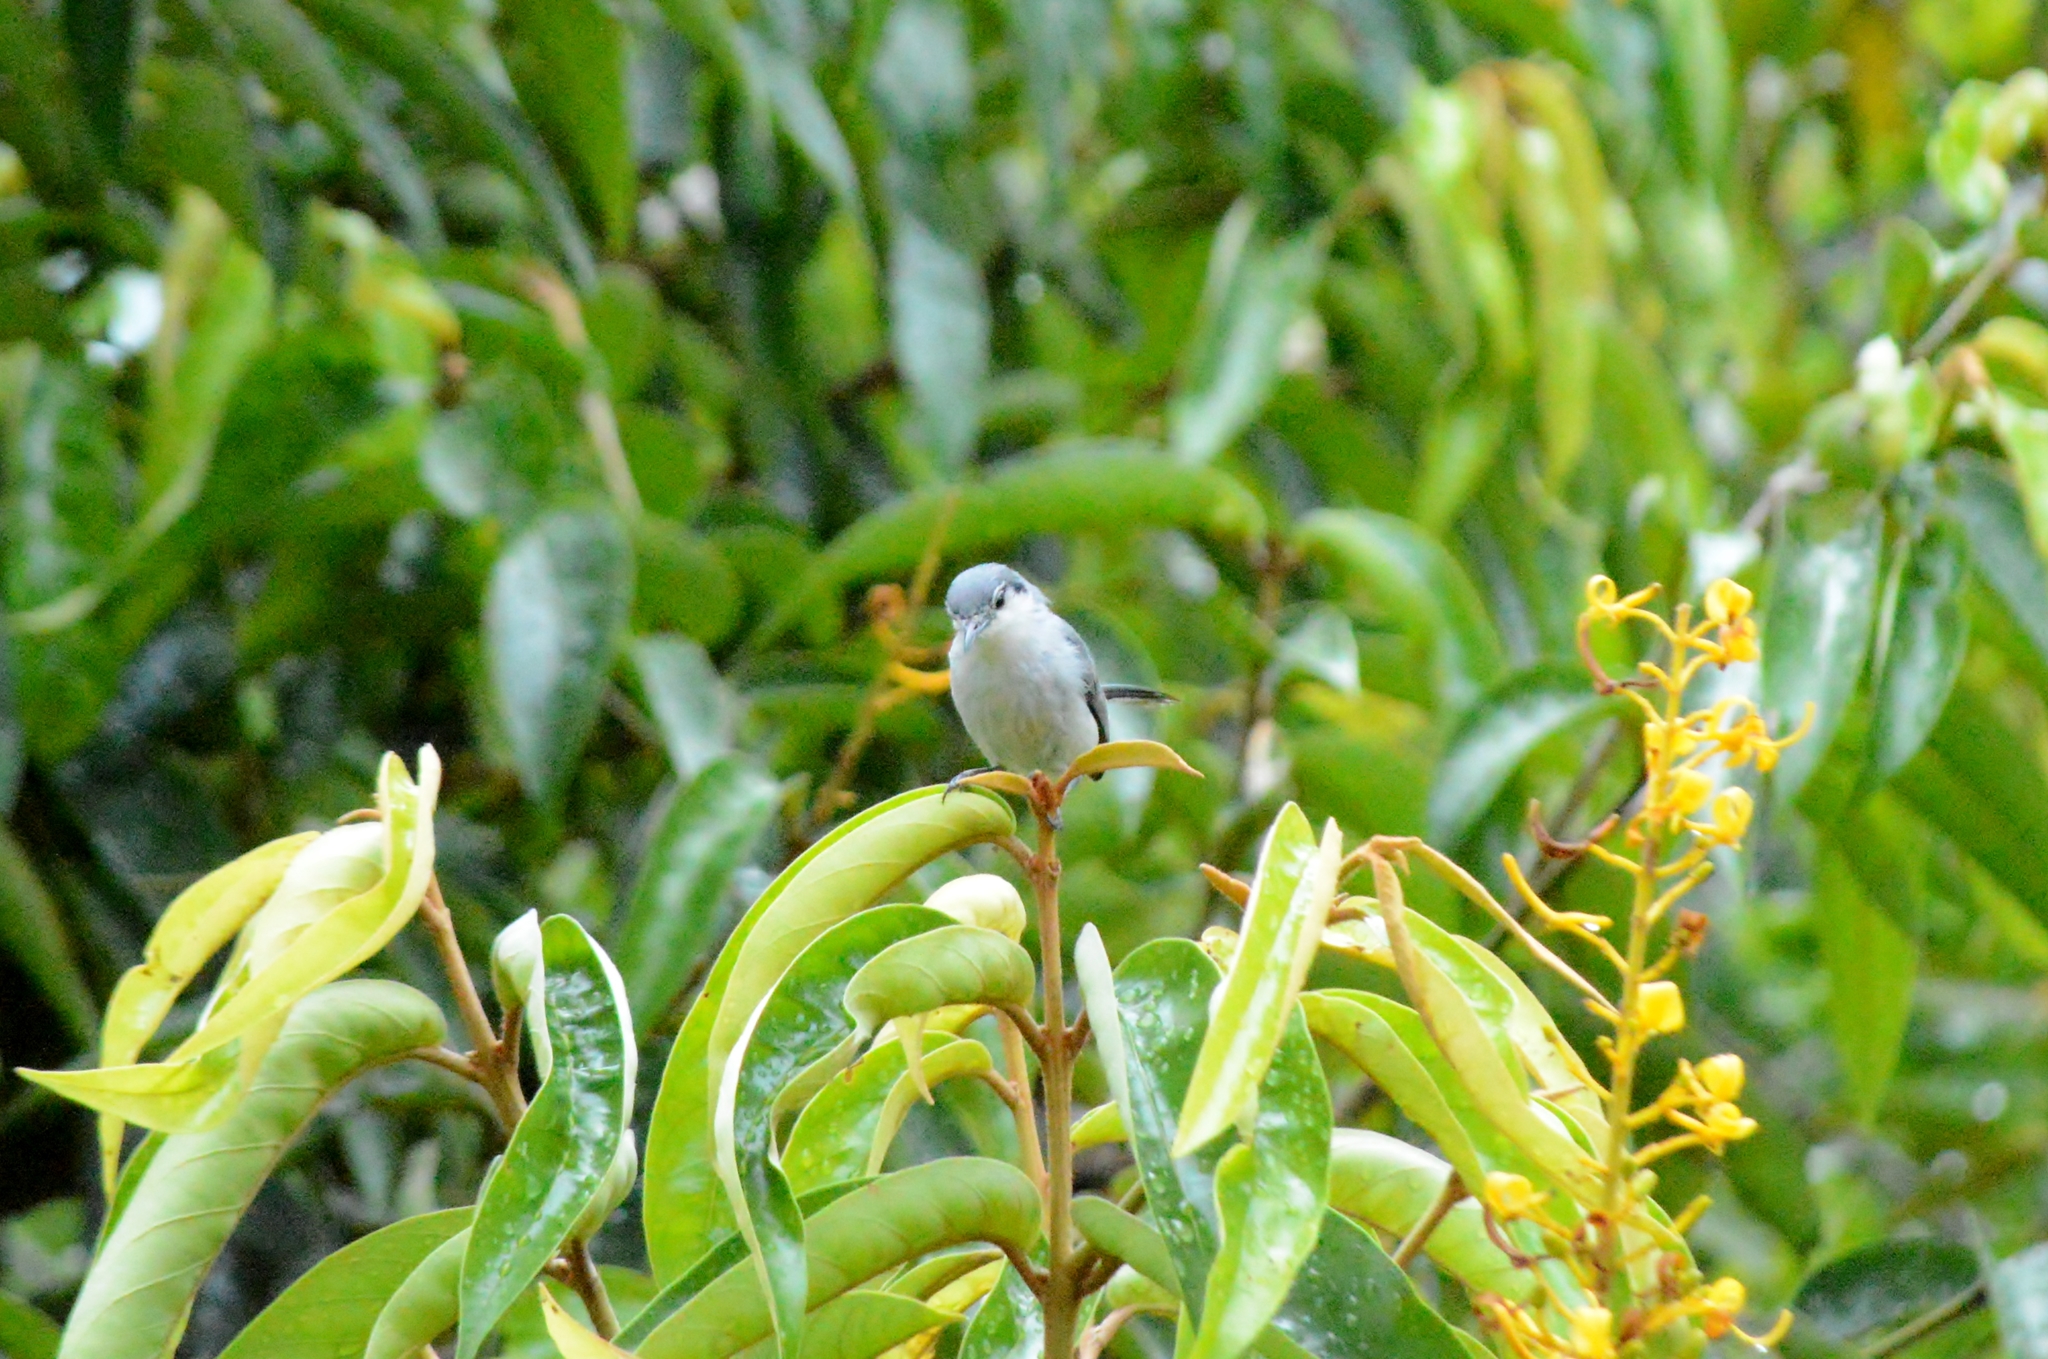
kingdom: Animalia
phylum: Chordata
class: Aves
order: Passeriformes
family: Polioptilidae
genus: Polioptila
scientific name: Polioptila dumicola
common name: Masked gnatcatcher
